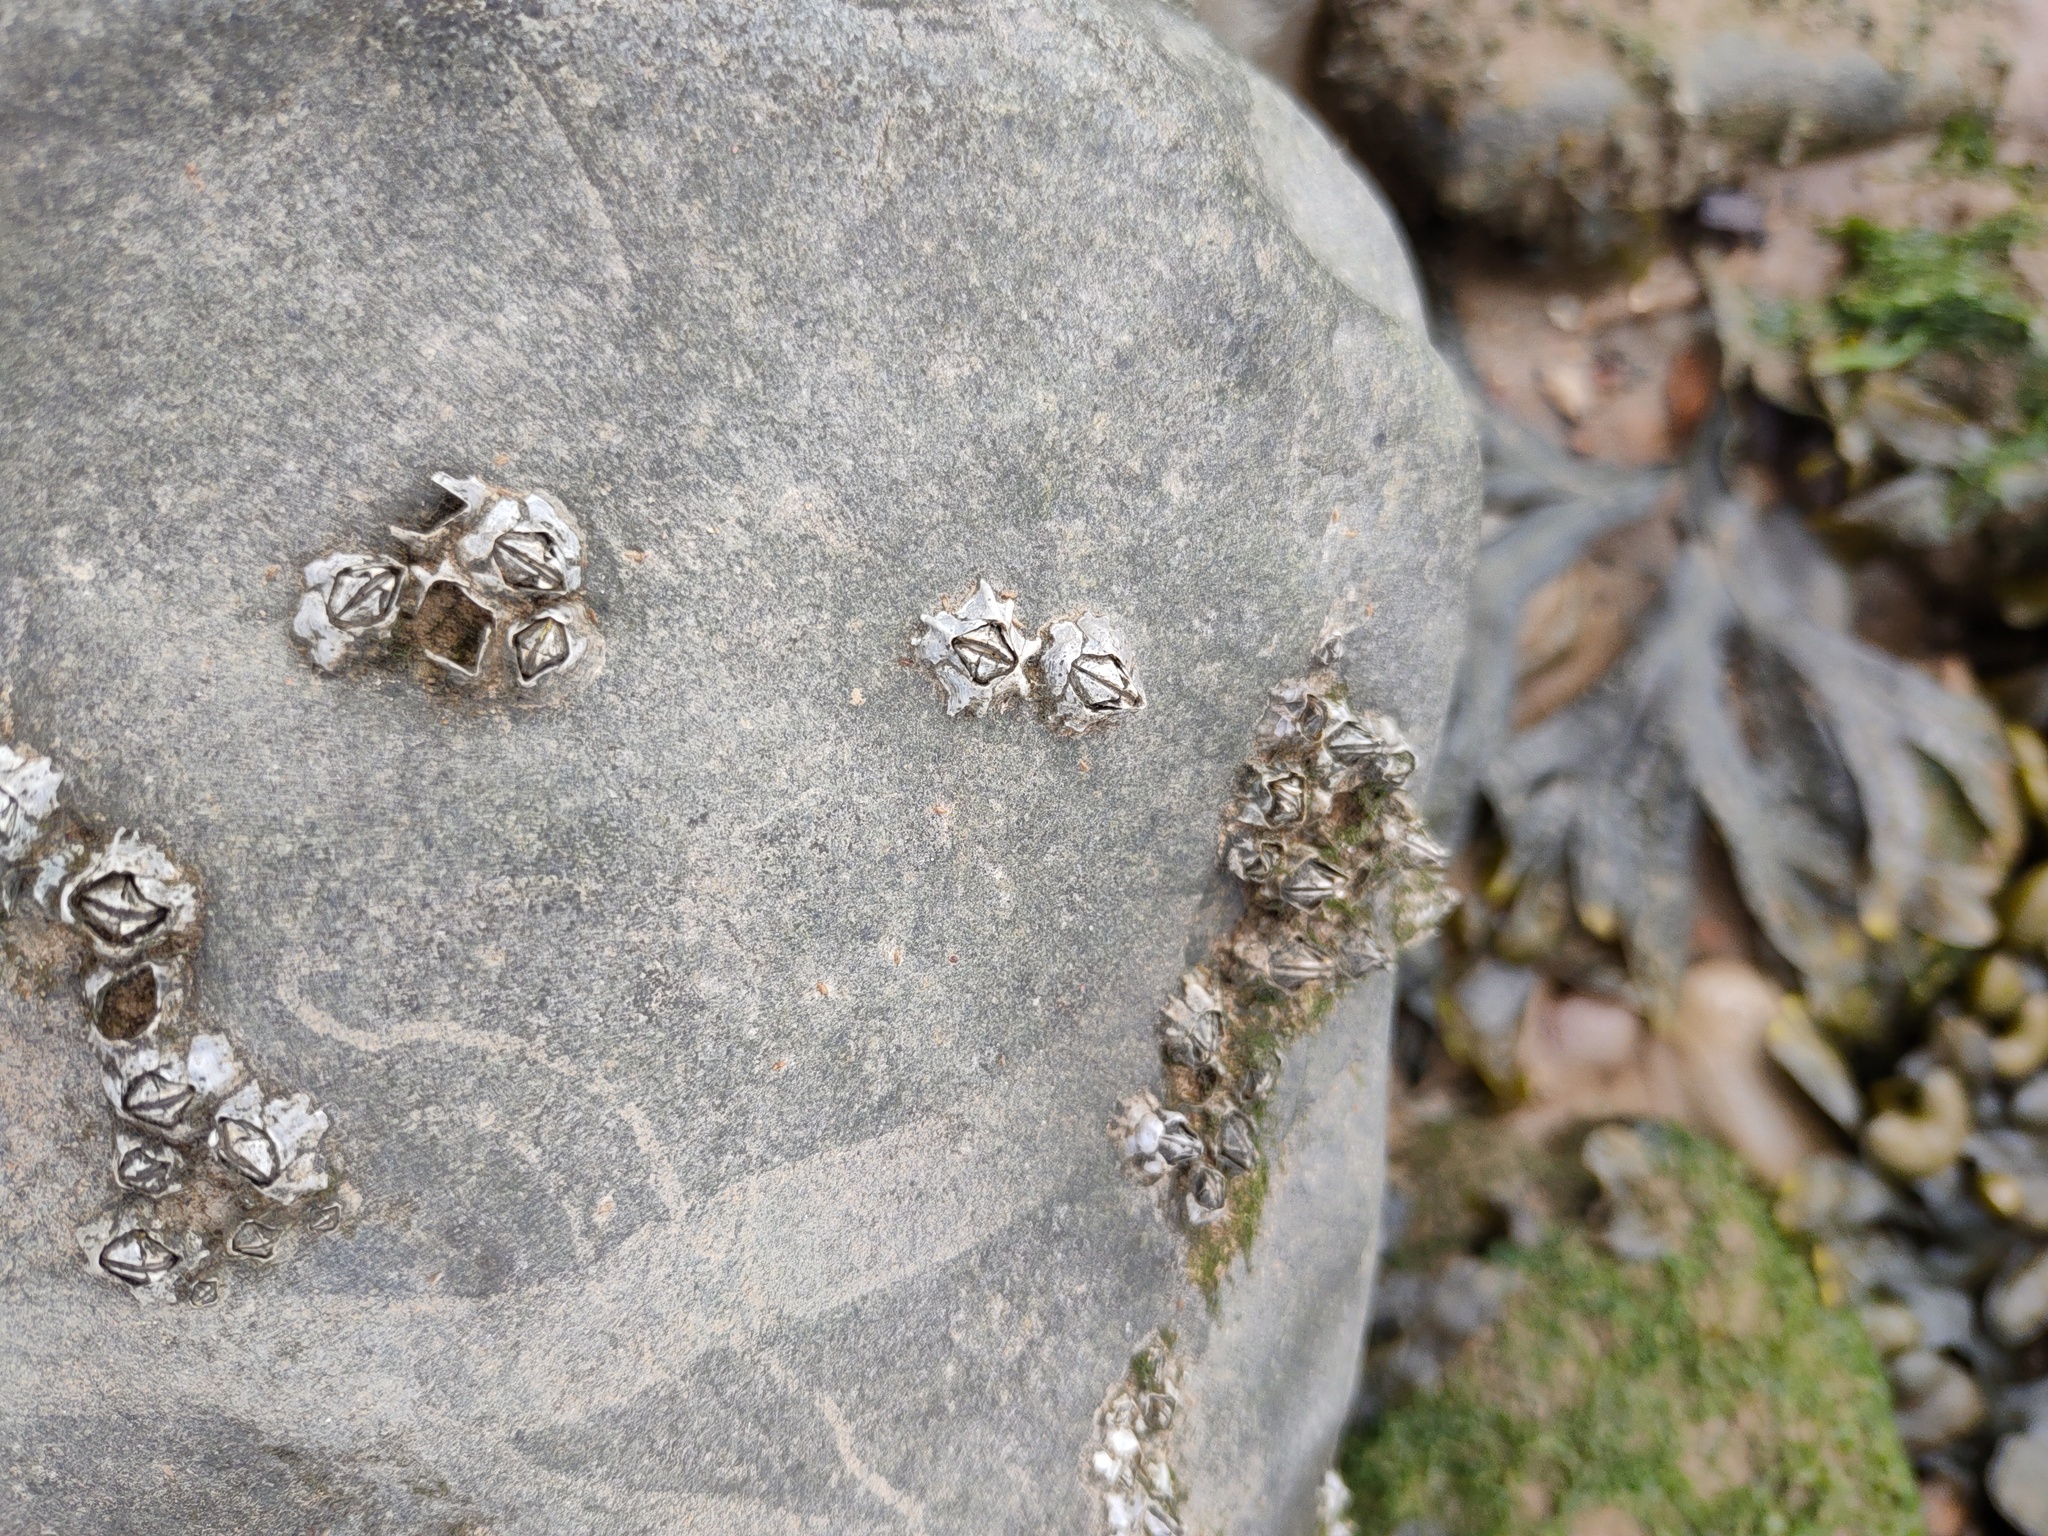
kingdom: Animalia
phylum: Arthropoda
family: Elminiidae
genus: Austrominius
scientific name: Austrominius modestus
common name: Australasian barnacle
